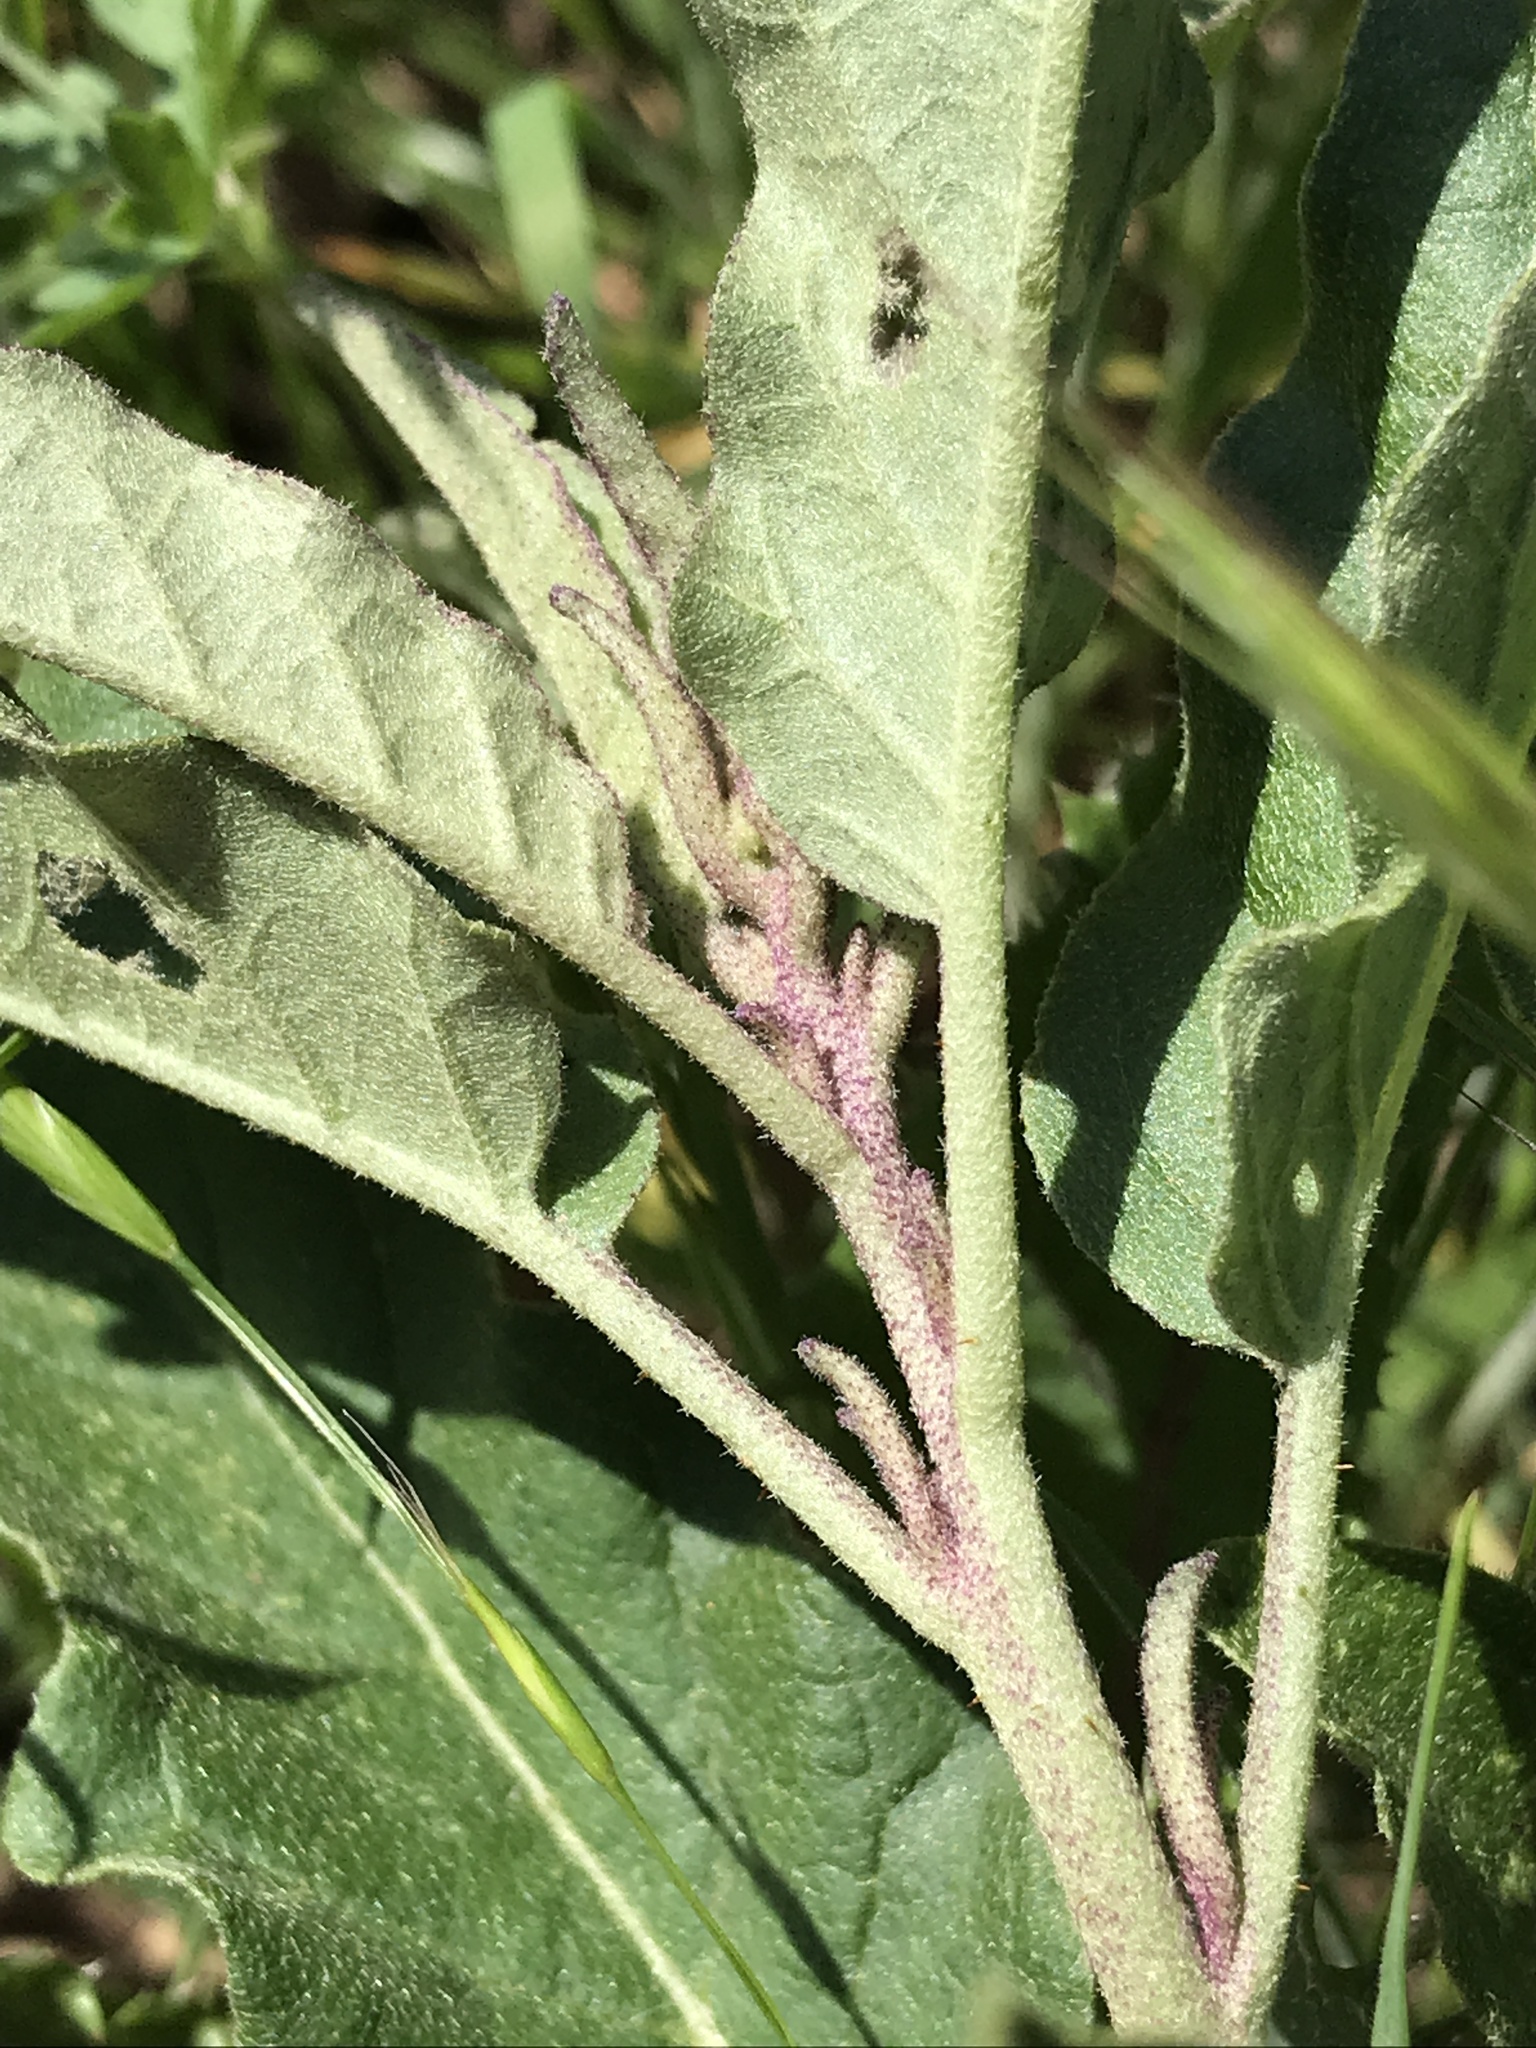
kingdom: Plantae
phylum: Tracheophyta
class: Magnoliopsida
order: Solanales
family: Solanaceae
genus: Solanum
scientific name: Solanum elaeagnifolium
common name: Silverleaf nightshade
